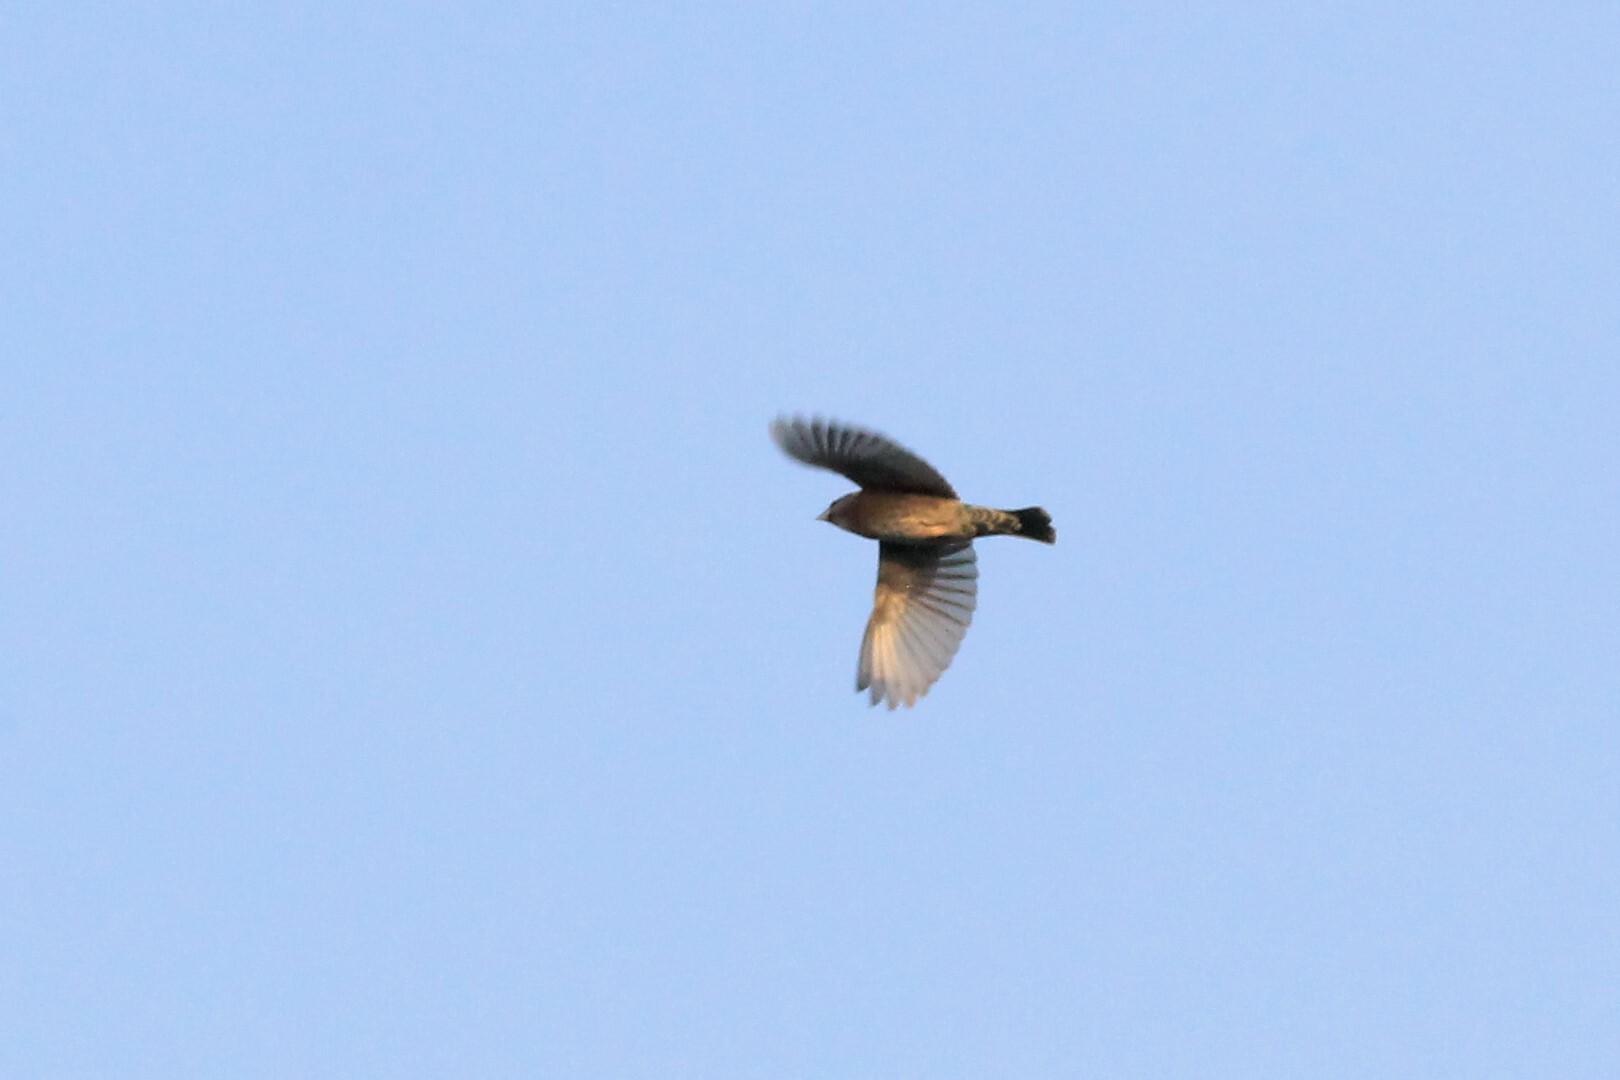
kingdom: Animalia
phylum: Chordata
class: Aves
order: Passeriformes
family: Cardinalidae
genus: Passerina
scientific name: Passerina caerulea
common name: Blue grosbeak
